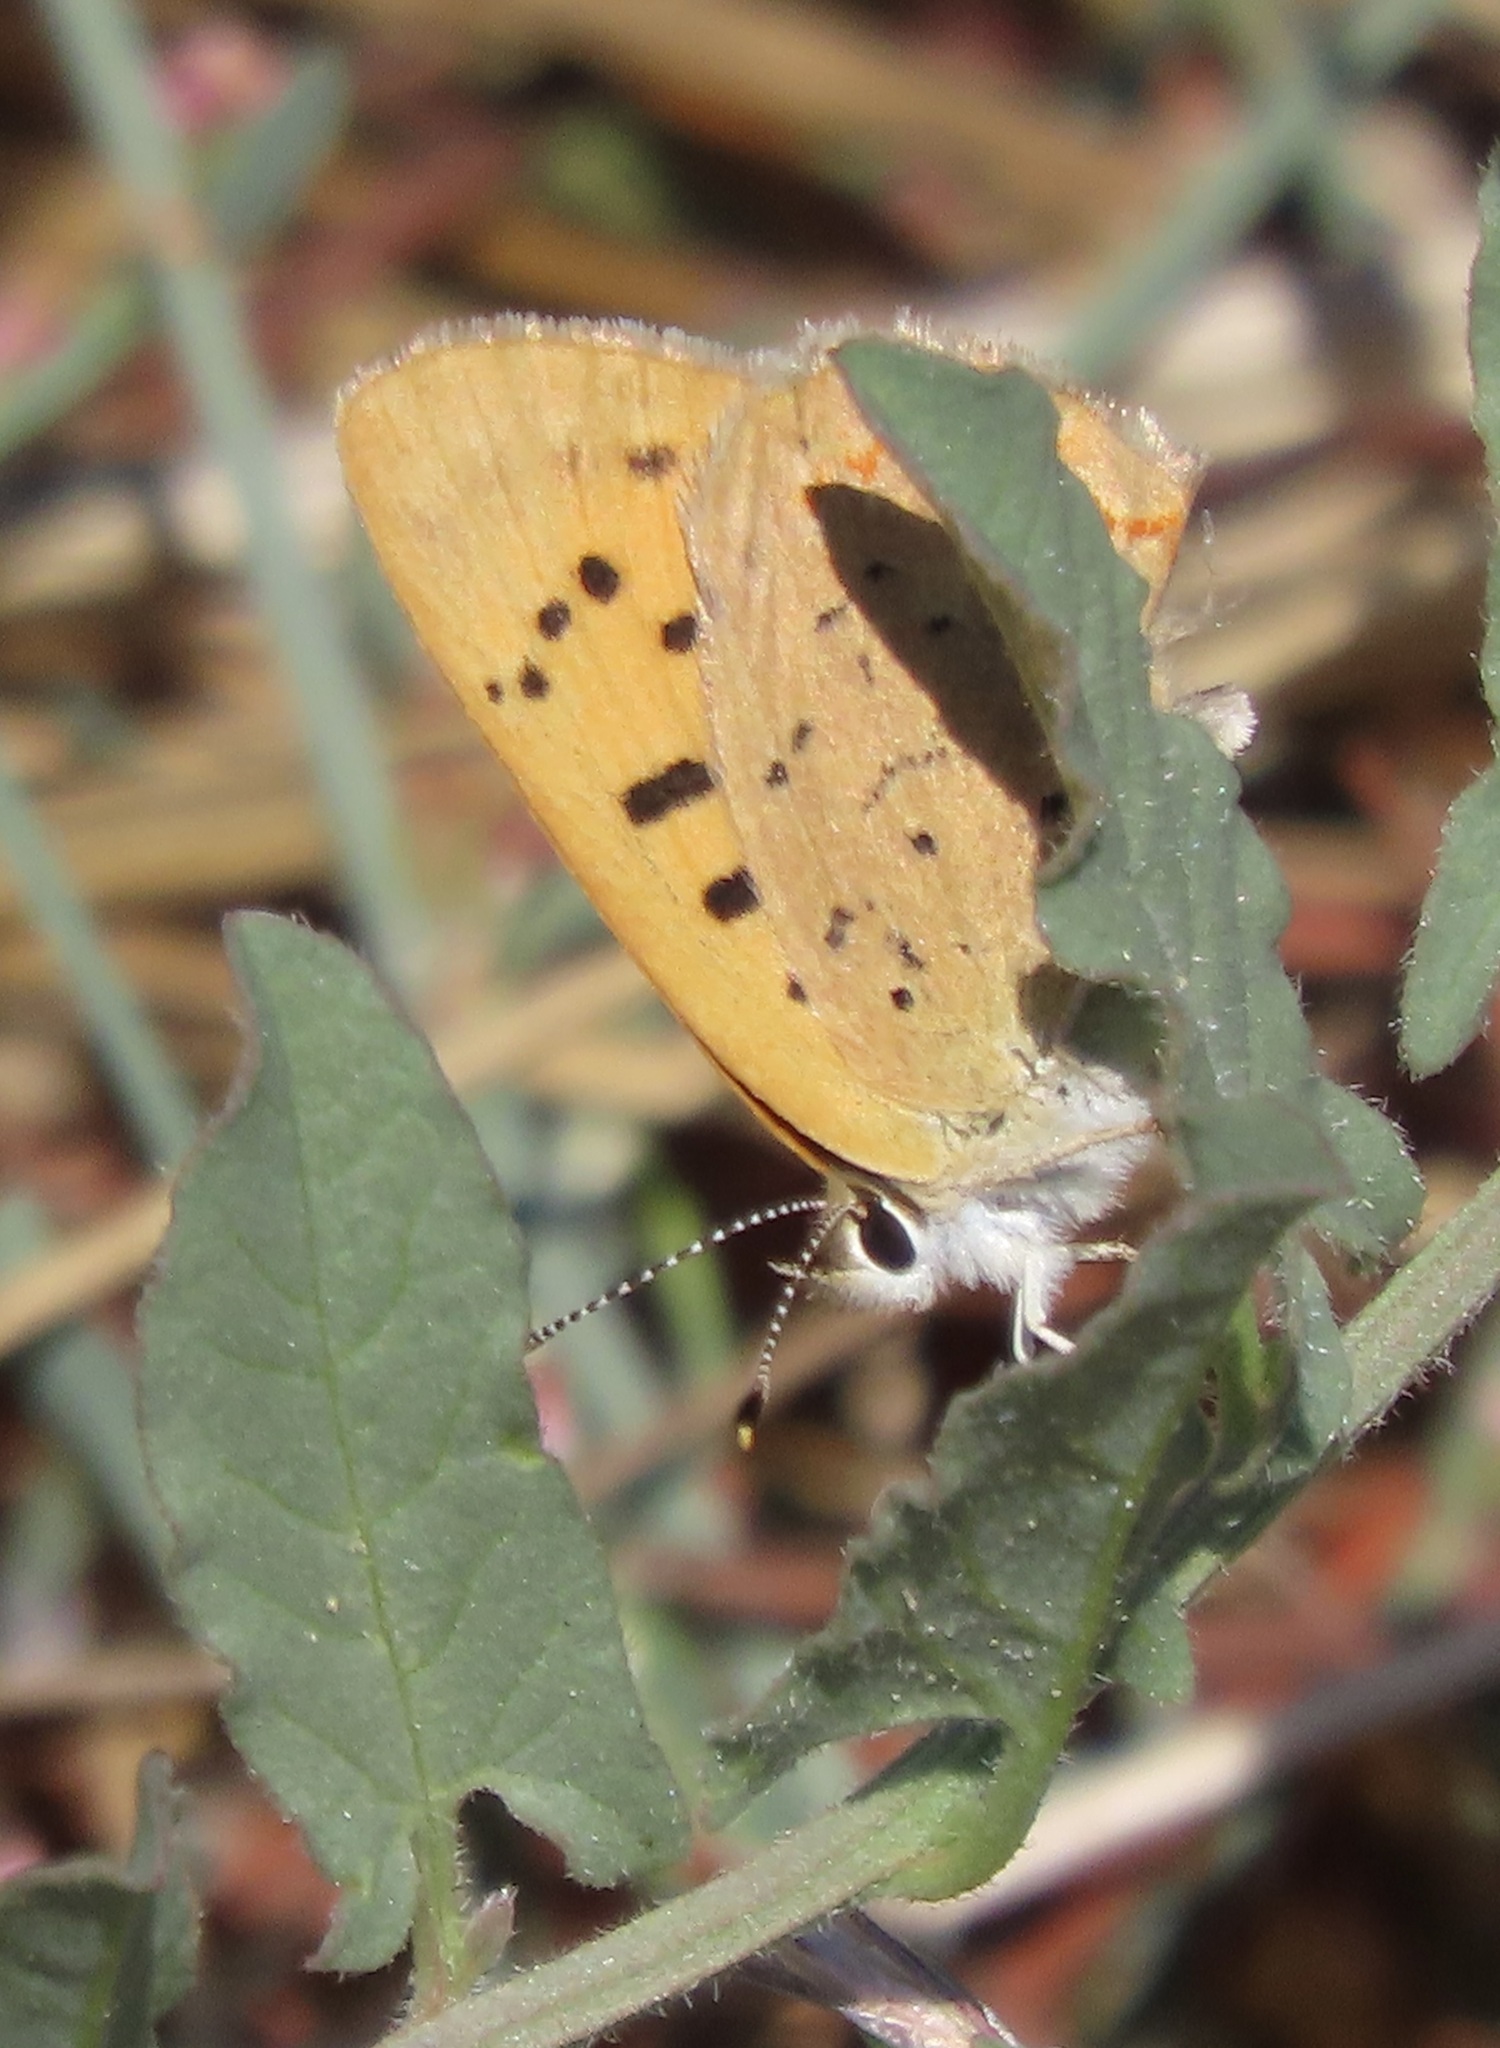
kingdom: Animalia
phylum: Arthropoda
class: Insecta
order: Lepidoptera
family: Lycaenidae
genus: Tharsalea
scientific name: Tharsalea helloides
